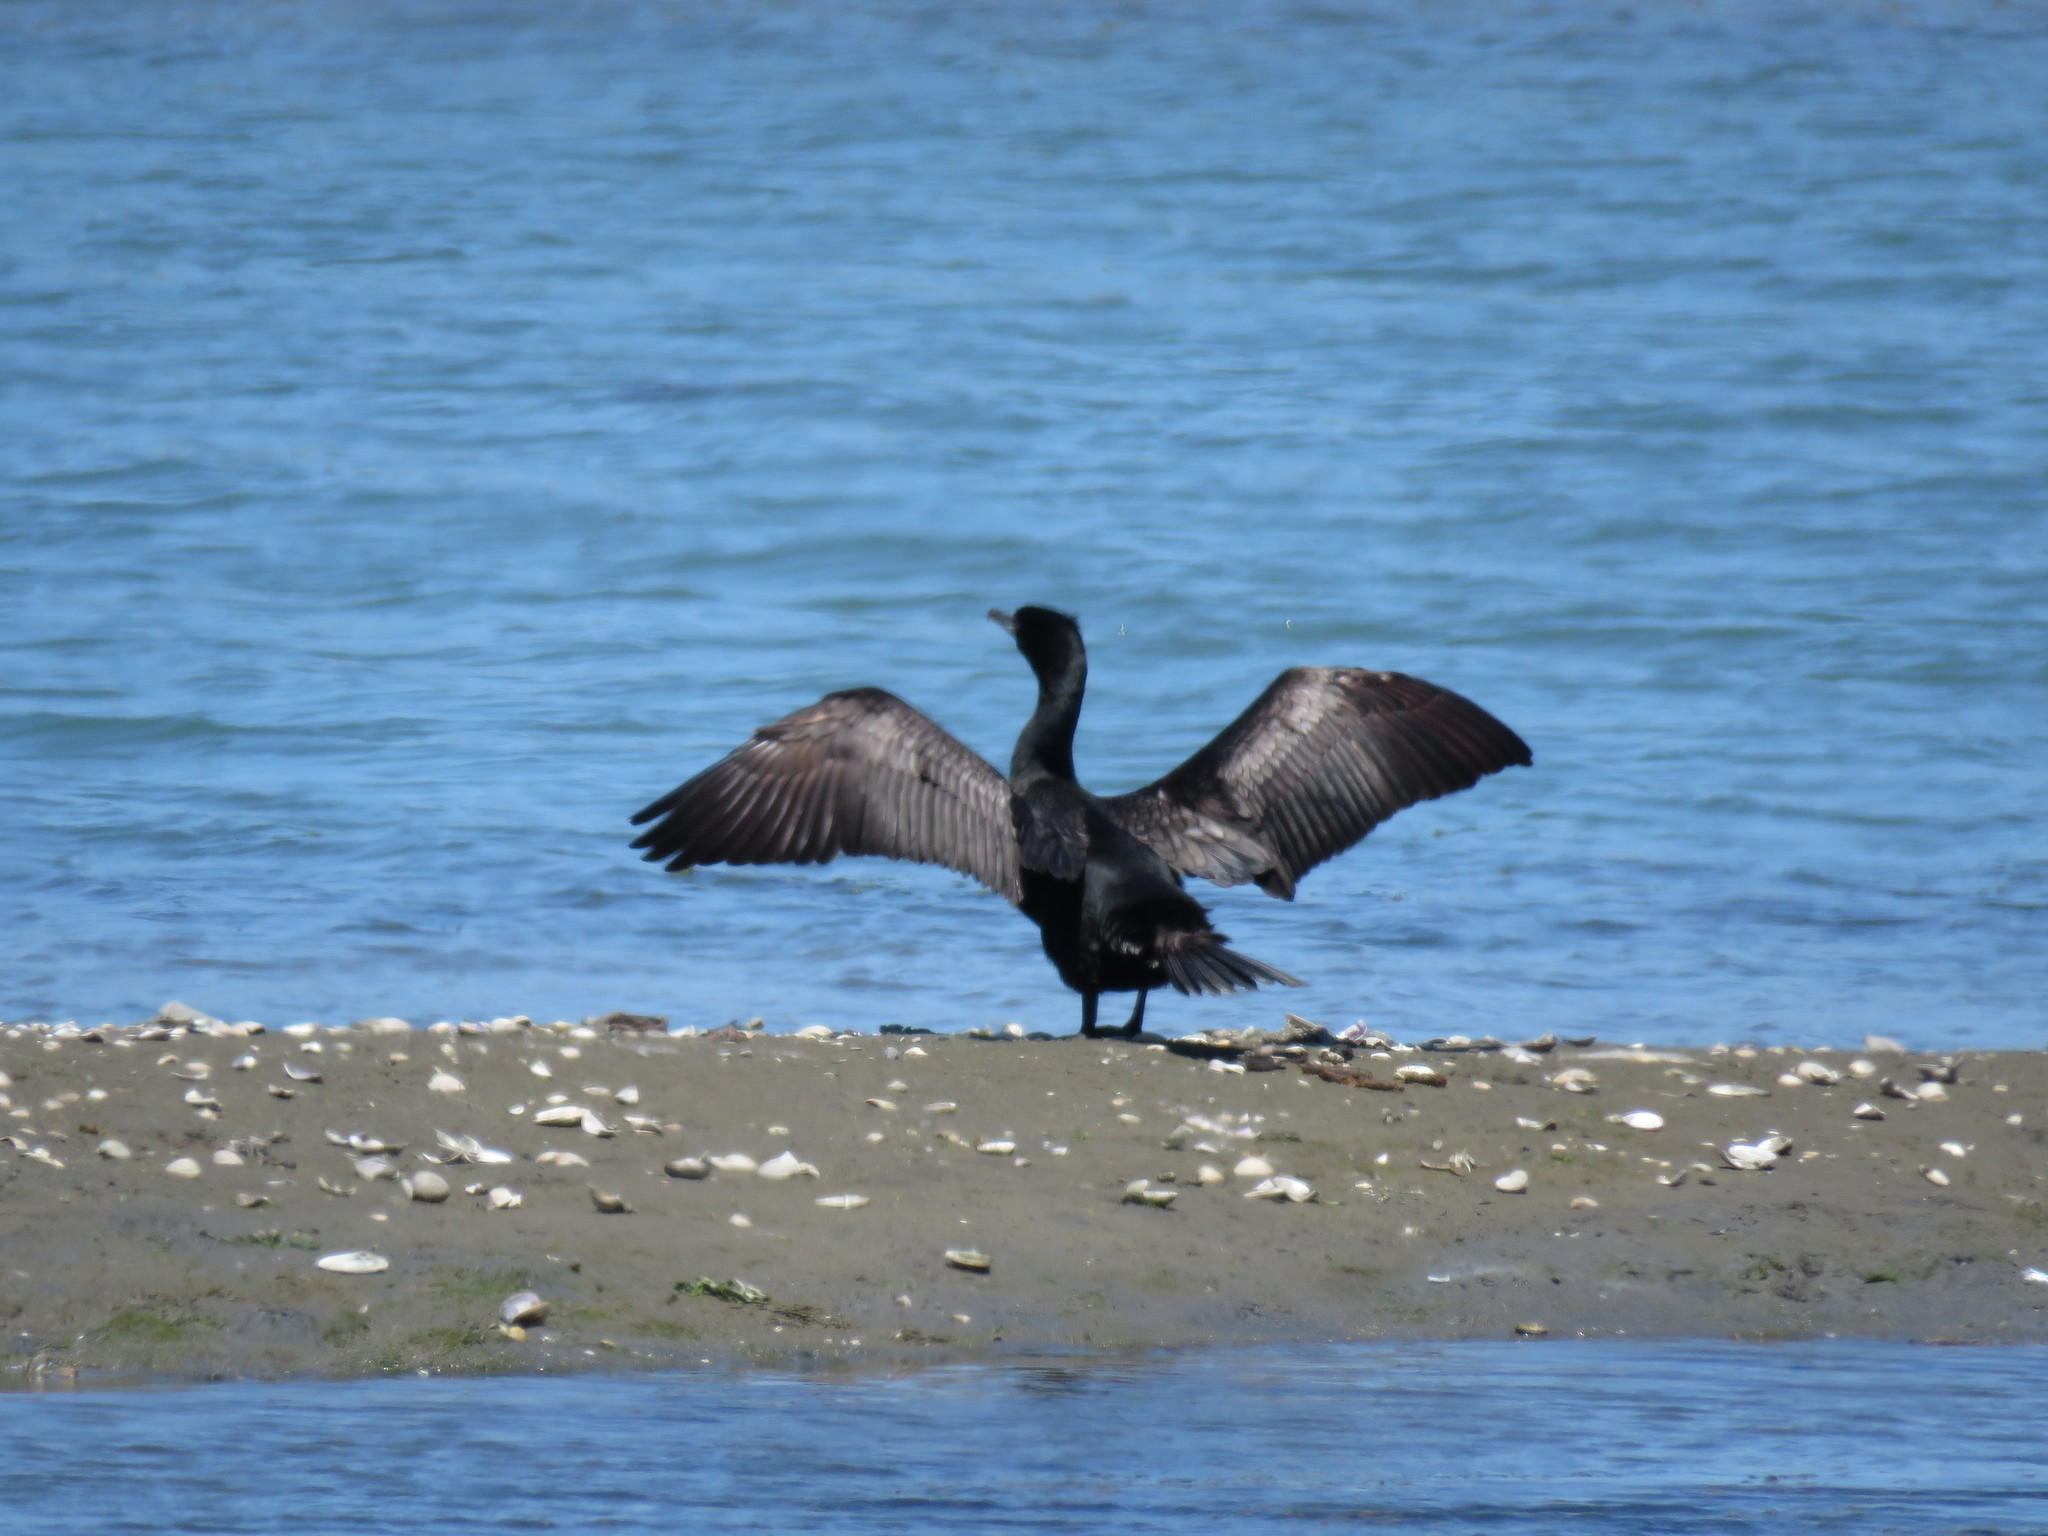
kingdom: Animalia
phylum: Chordata
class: Aves
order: Suliformes
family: Phalacrocoracidae
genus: Phalacrocorax
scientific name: Phalacrocorax auritus
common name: Double-crested cormorant
